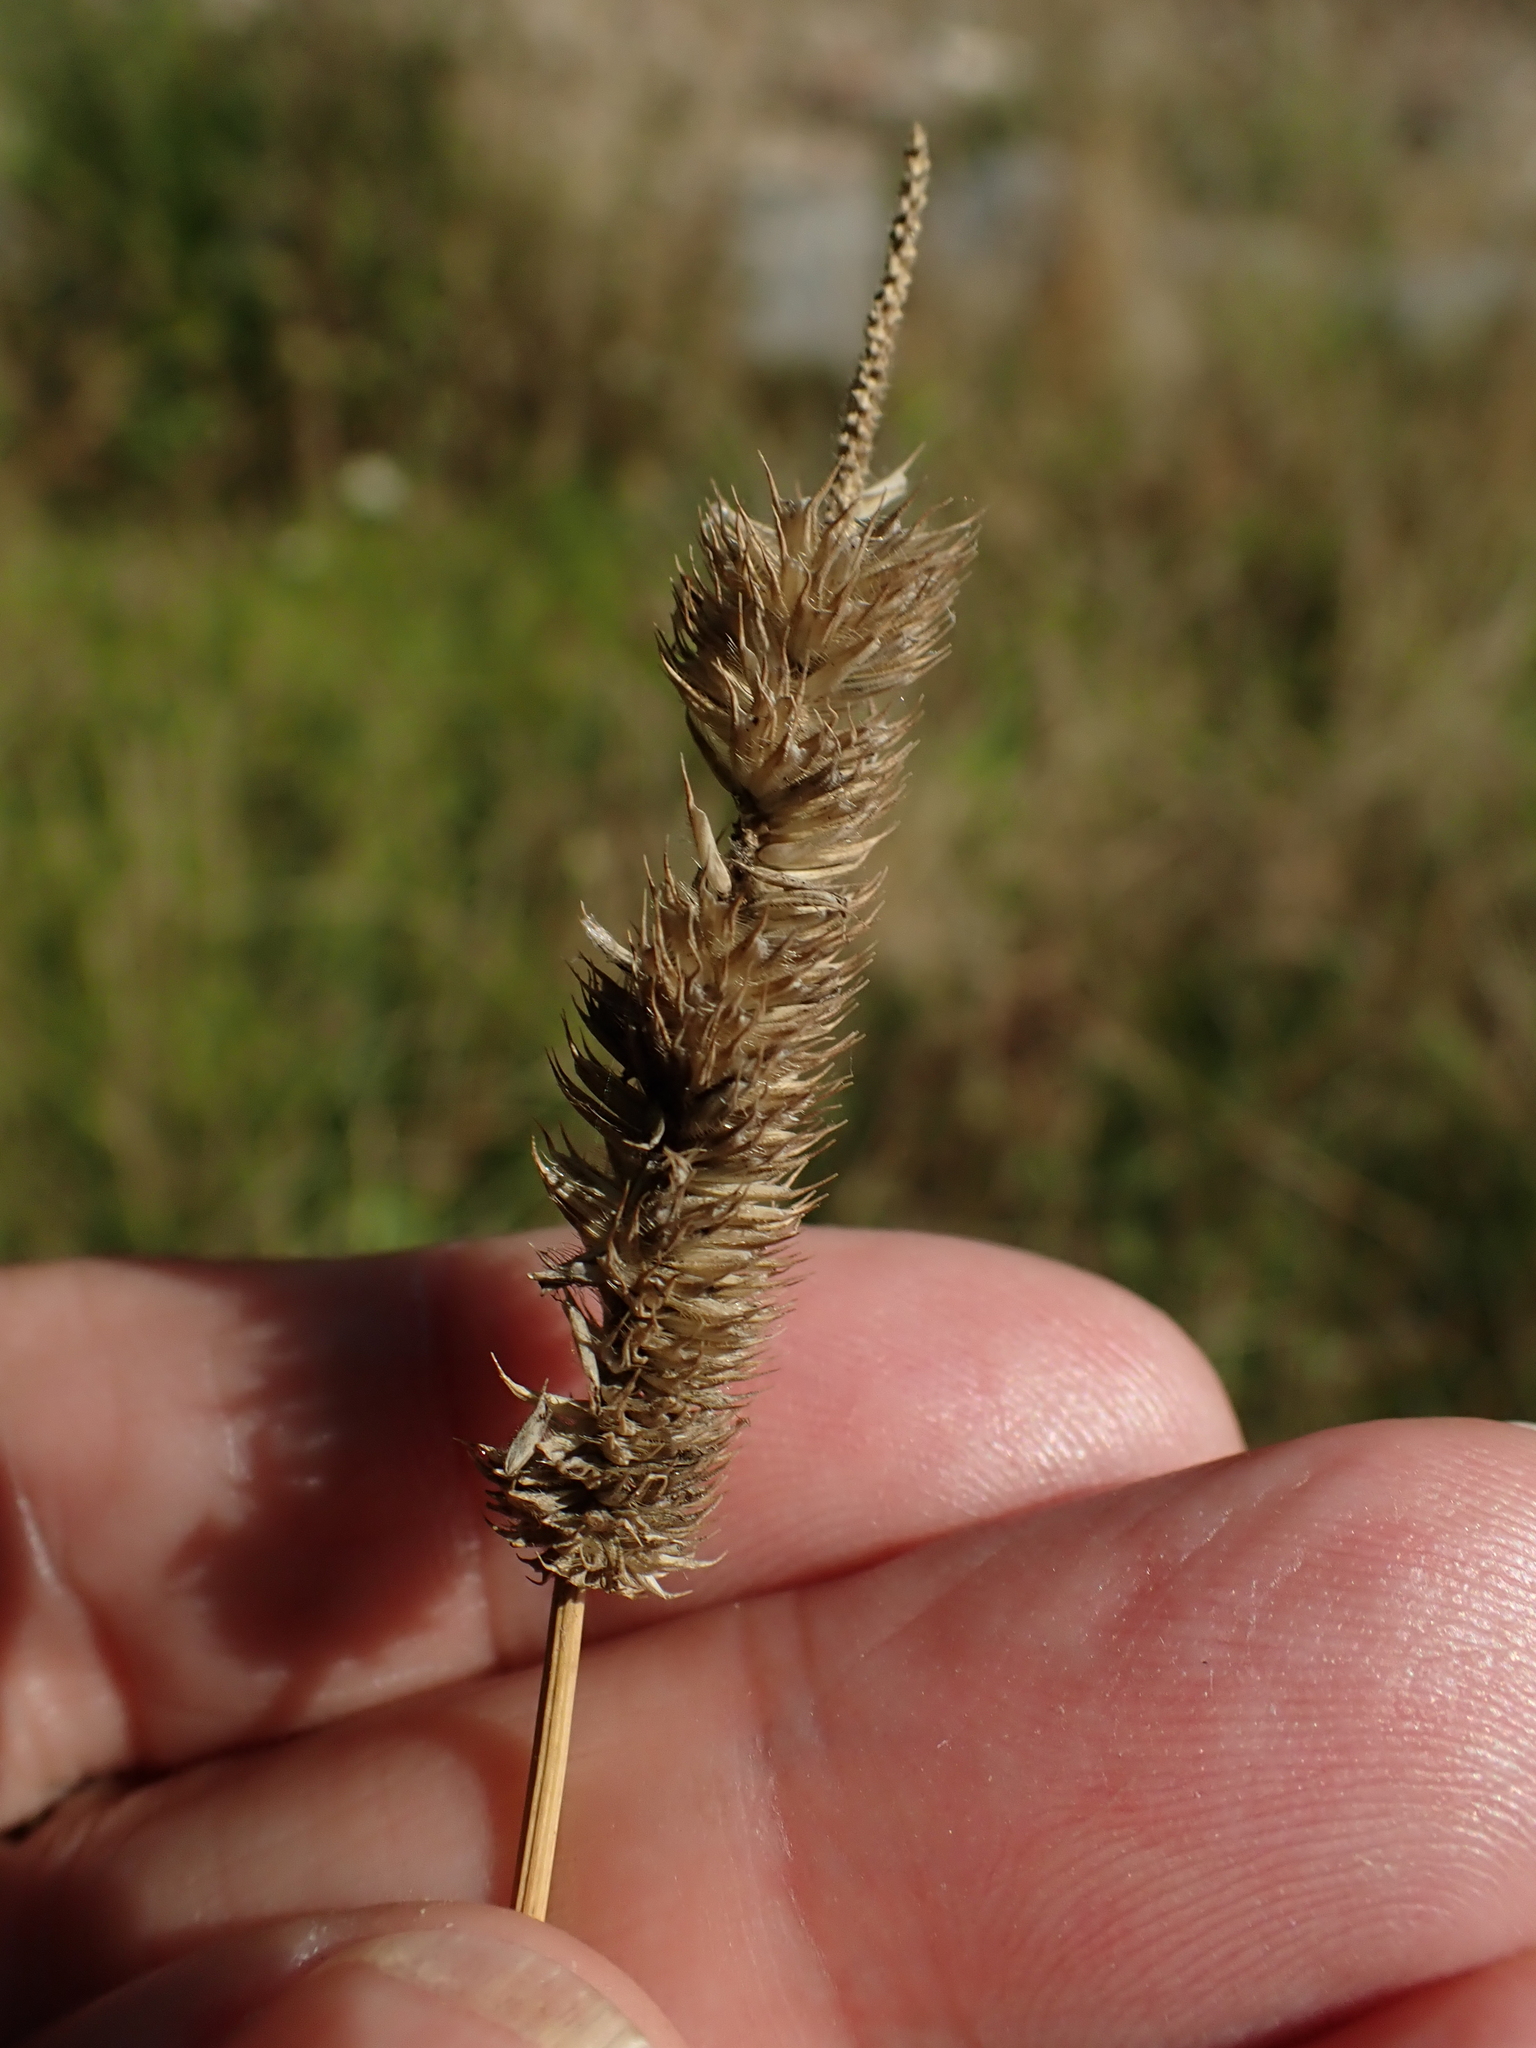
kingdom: Plantae
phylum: Tracheophyta
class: Liliopsida
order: Poales
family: Poaceae
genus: Phleum
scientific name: Phleum pratense
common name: Timothy grass
